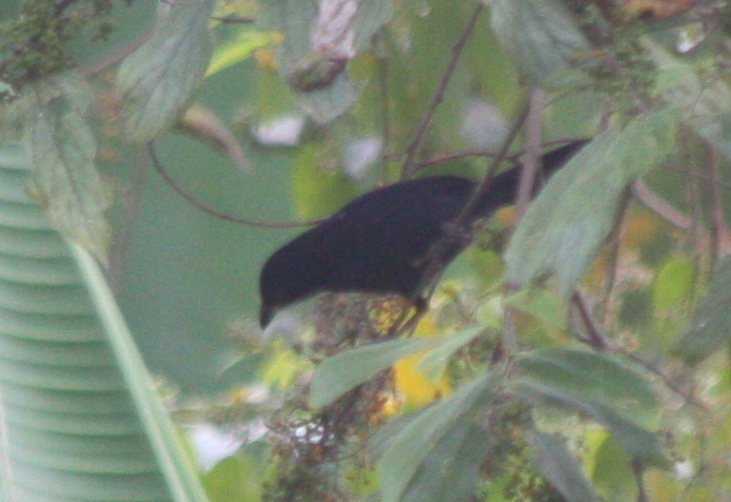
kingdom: Animalia
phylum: Chordata
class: Aves
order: Passeriformes
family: Thraupidae
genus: Tachyphonus
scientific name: Tachyphonus rufus
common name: White-lined tanager
